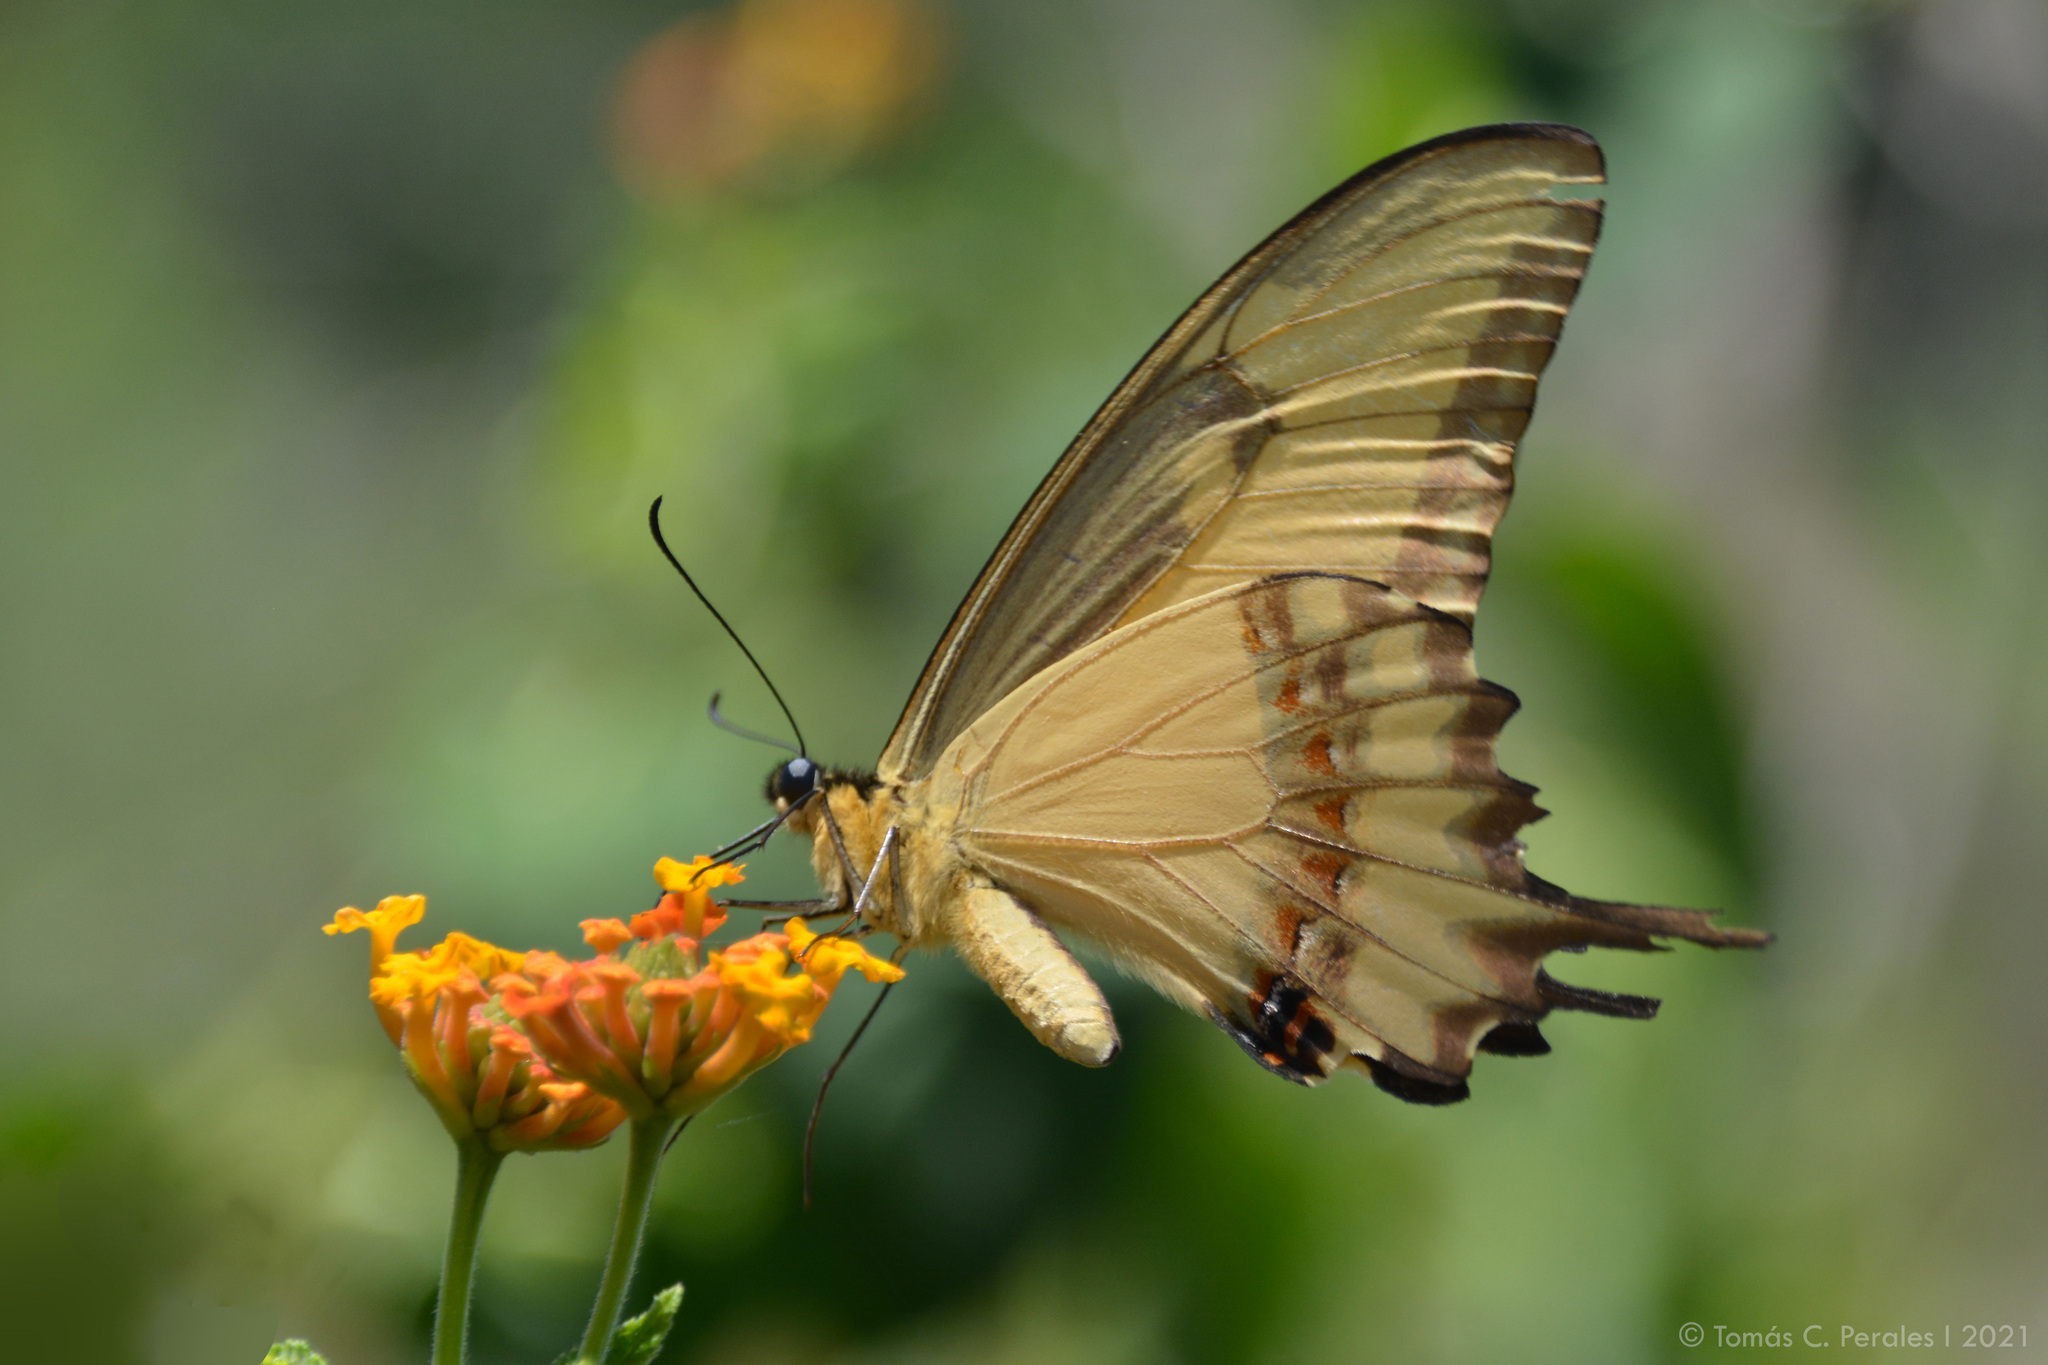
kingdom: Animalia
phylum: Arthropoda
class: Insecta
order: Lepidoptera
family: Papilionidae
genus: Papilio
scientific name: Papilio astyalus
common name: Astyalus swallowtail
